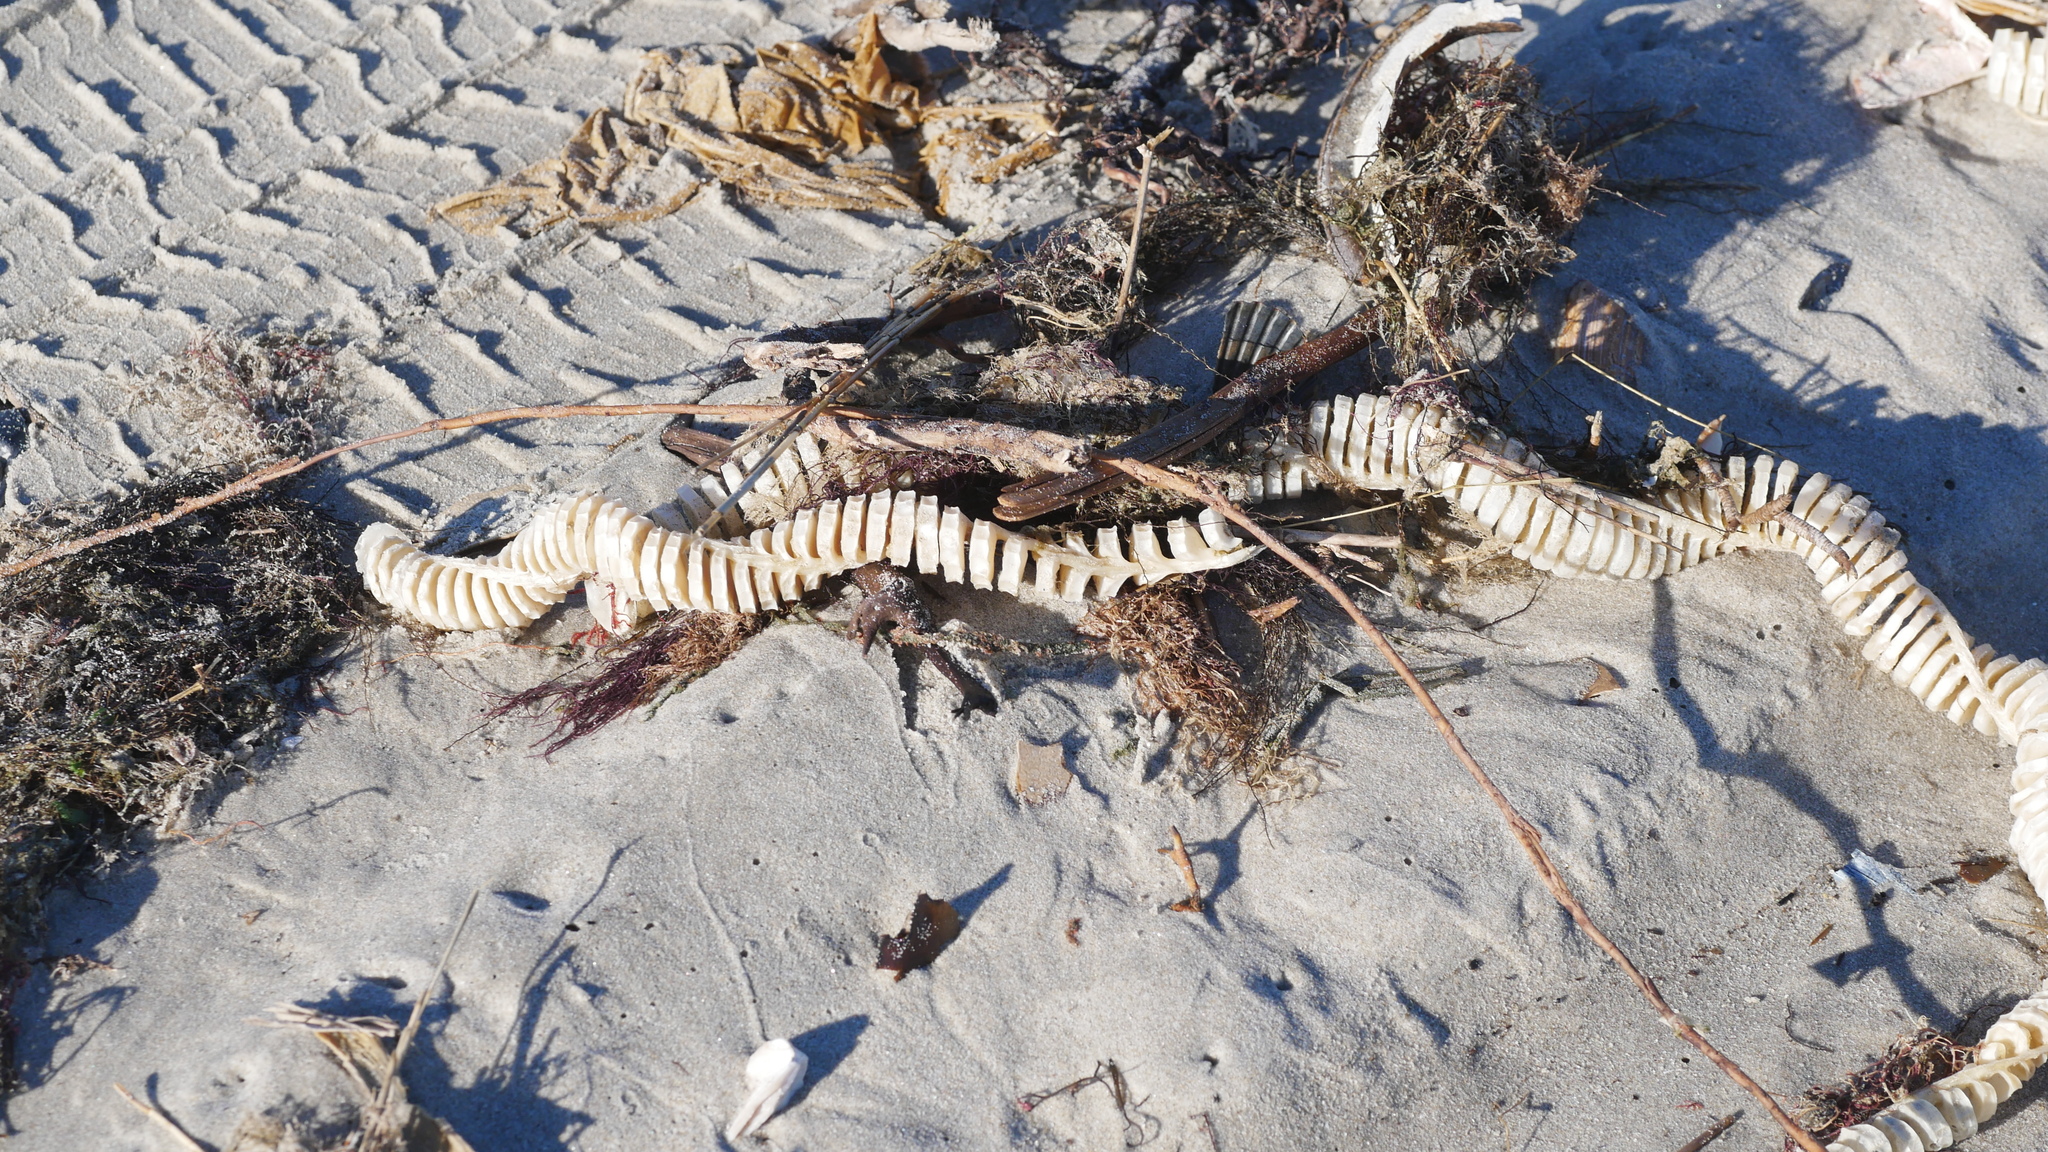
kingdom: Animalia
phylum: Mollusca
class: Gastropoda
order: Neogastropoda
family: Busyconidae
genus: Busycon
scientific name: Busycon carica
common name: Knobbed whelk
